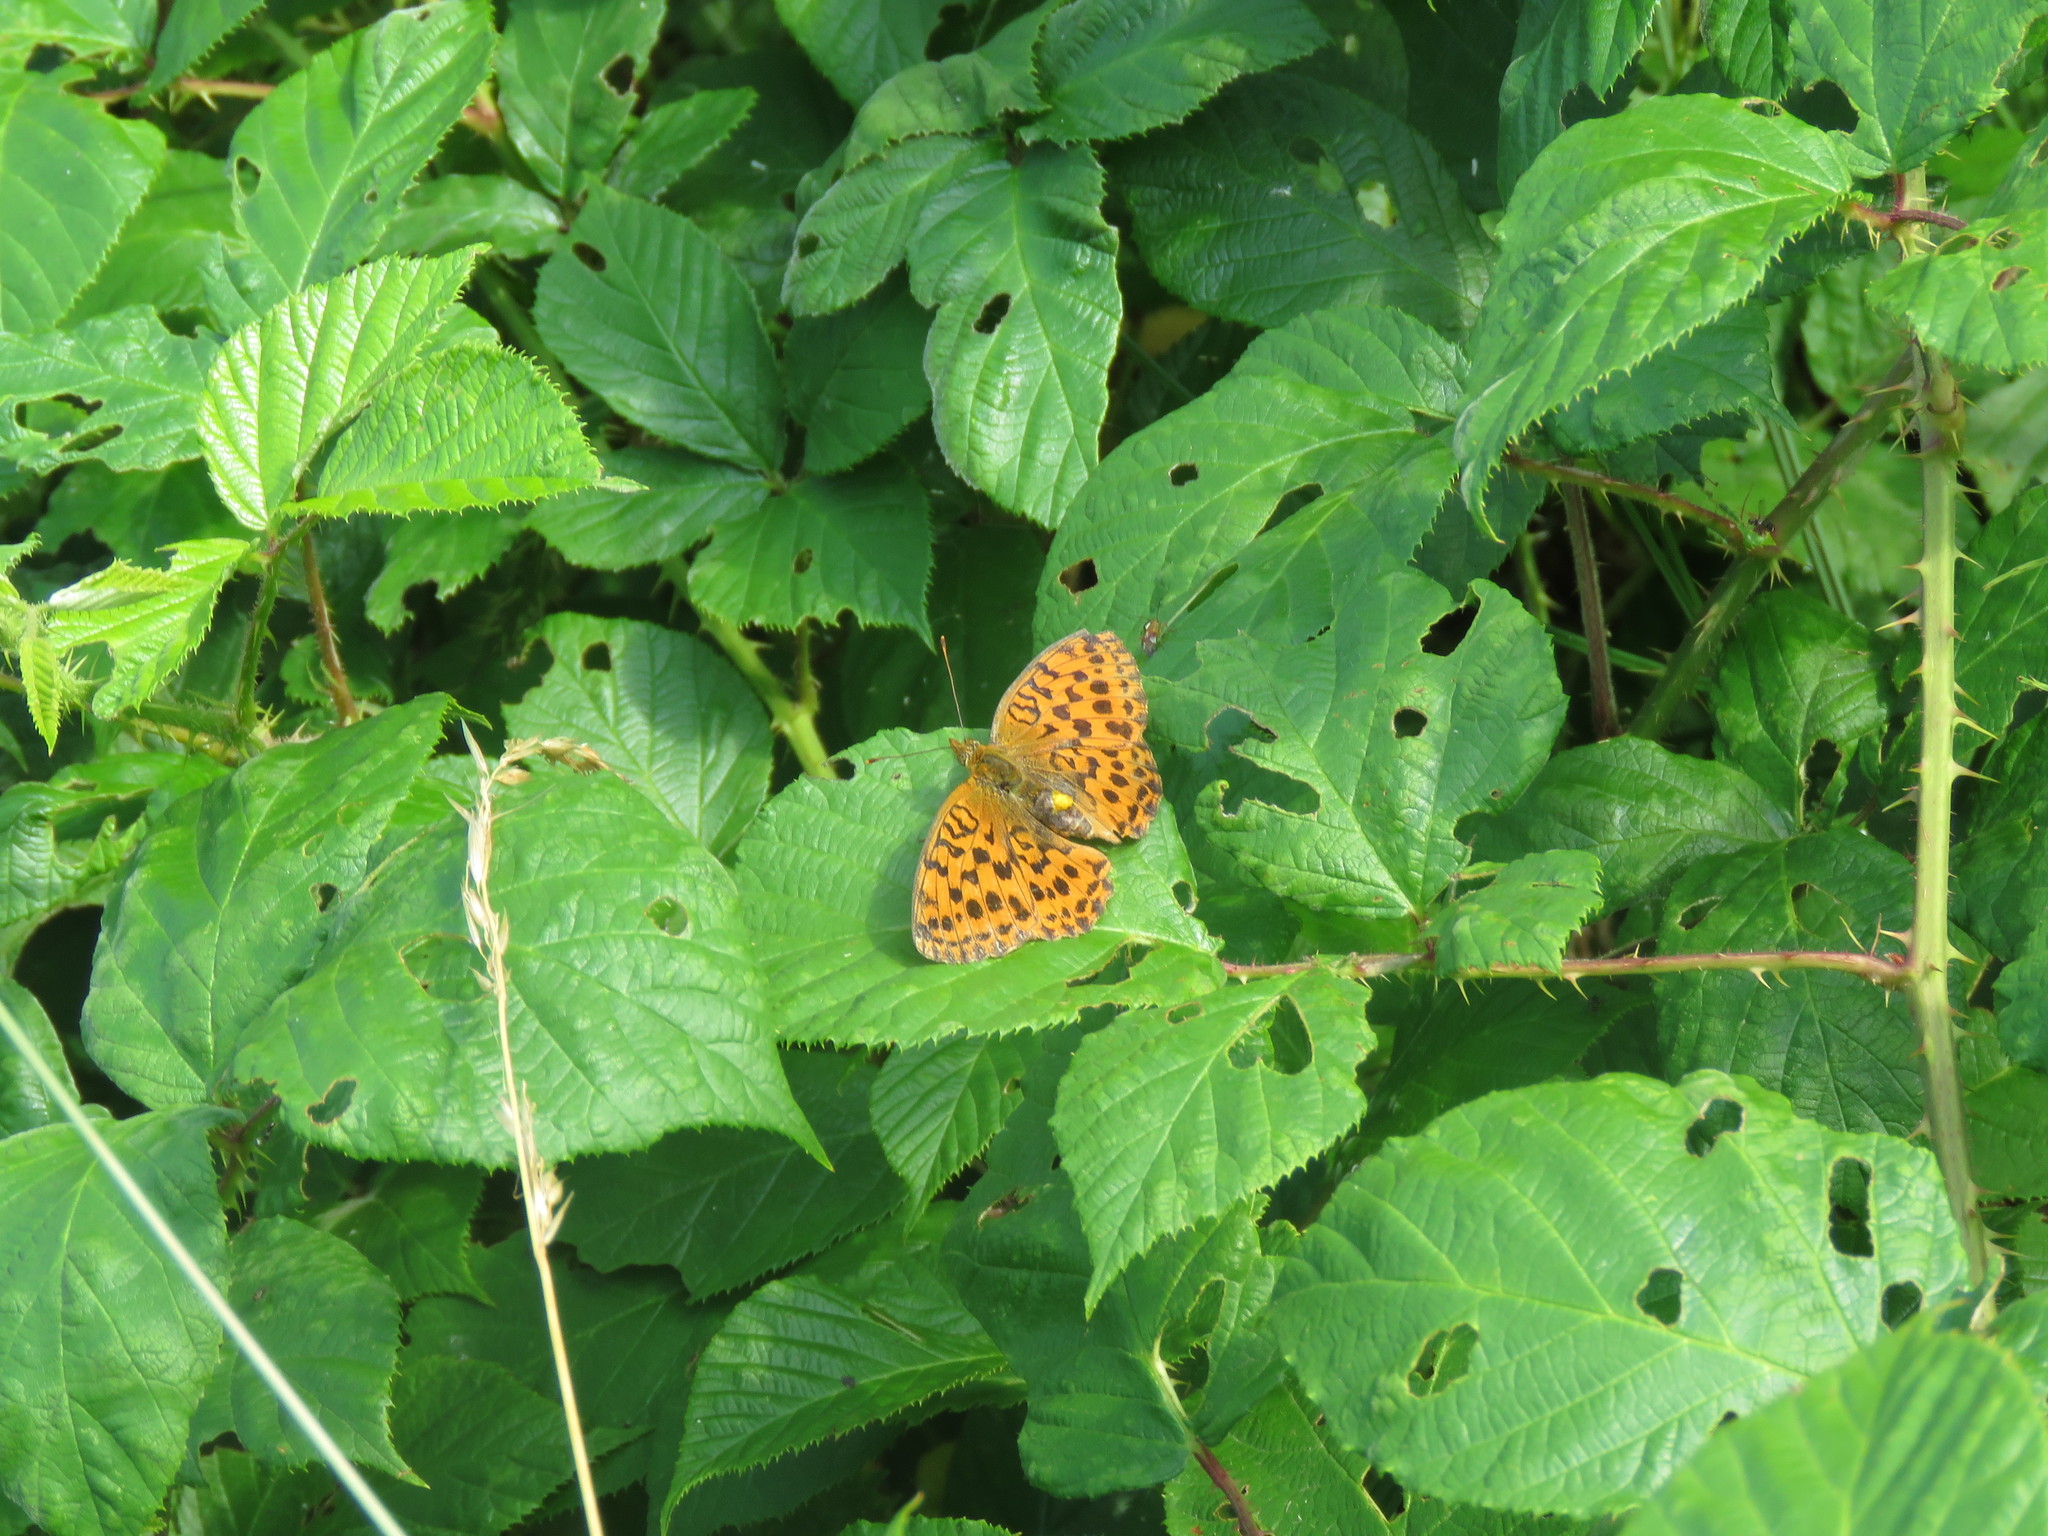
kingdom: Animalia
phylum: Arthropoda
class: Insecta
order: Lepidoptera
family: Nymphalidae
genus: Brenthis
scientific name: Brenthis daphne
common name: Marbled fritillary
